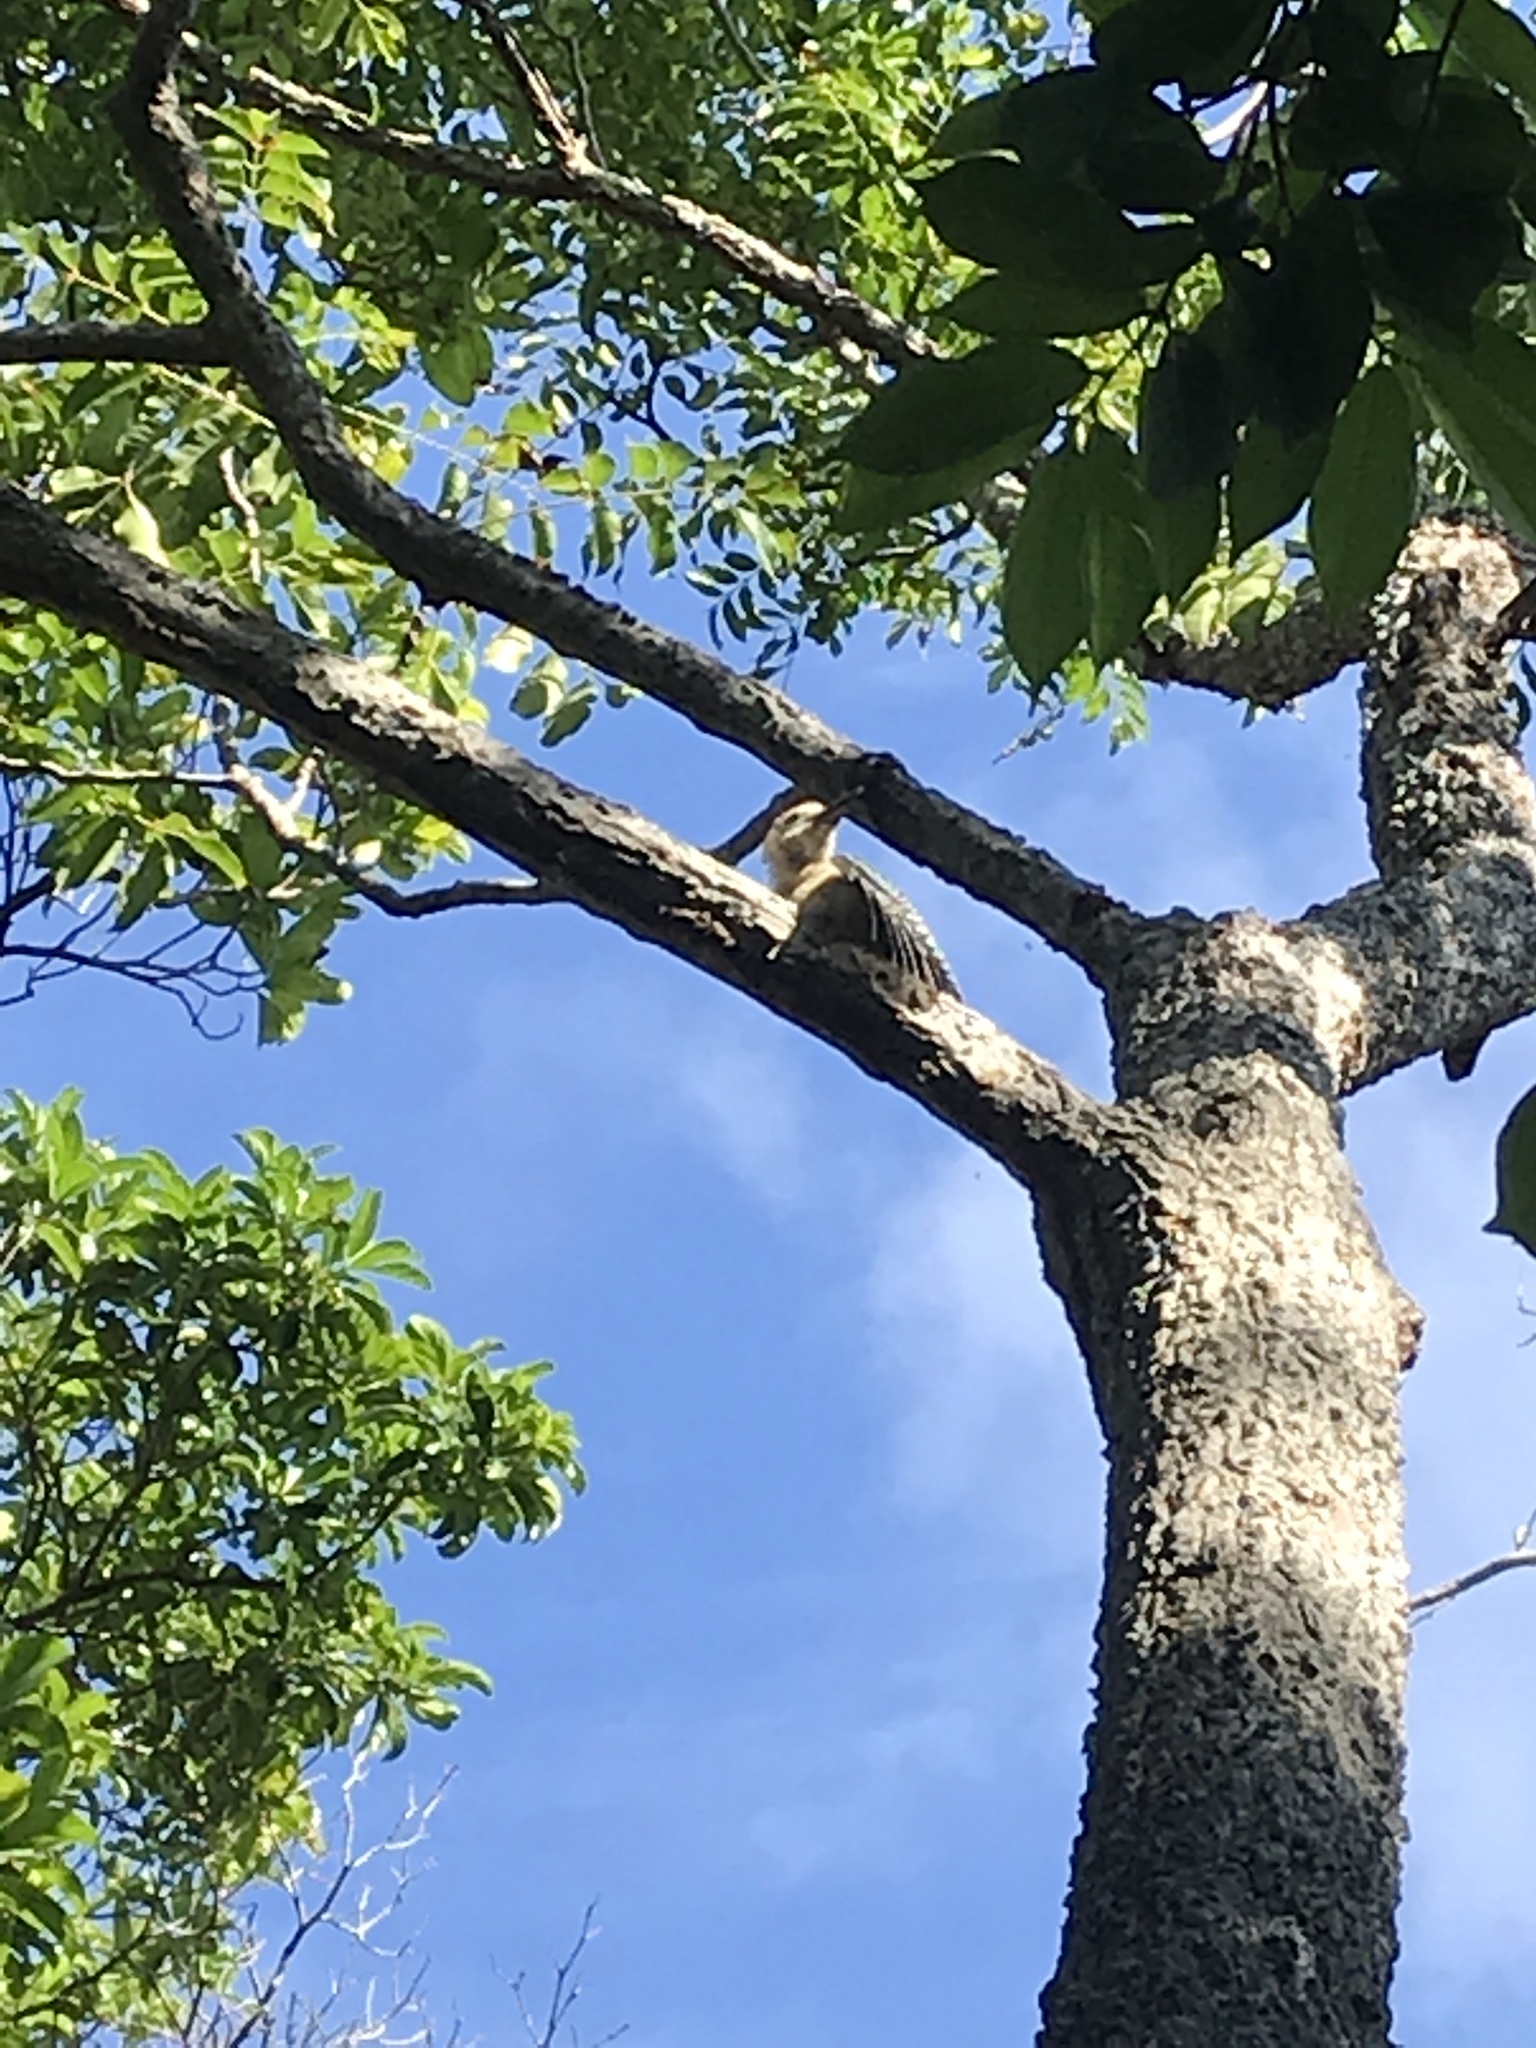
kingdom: Animalia
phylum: Chordata
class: Aves
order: Piciformes
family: Picidae
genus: Melanerpes
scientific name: Melanerpes aurifrons
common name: Golden-fronted woodpecker
